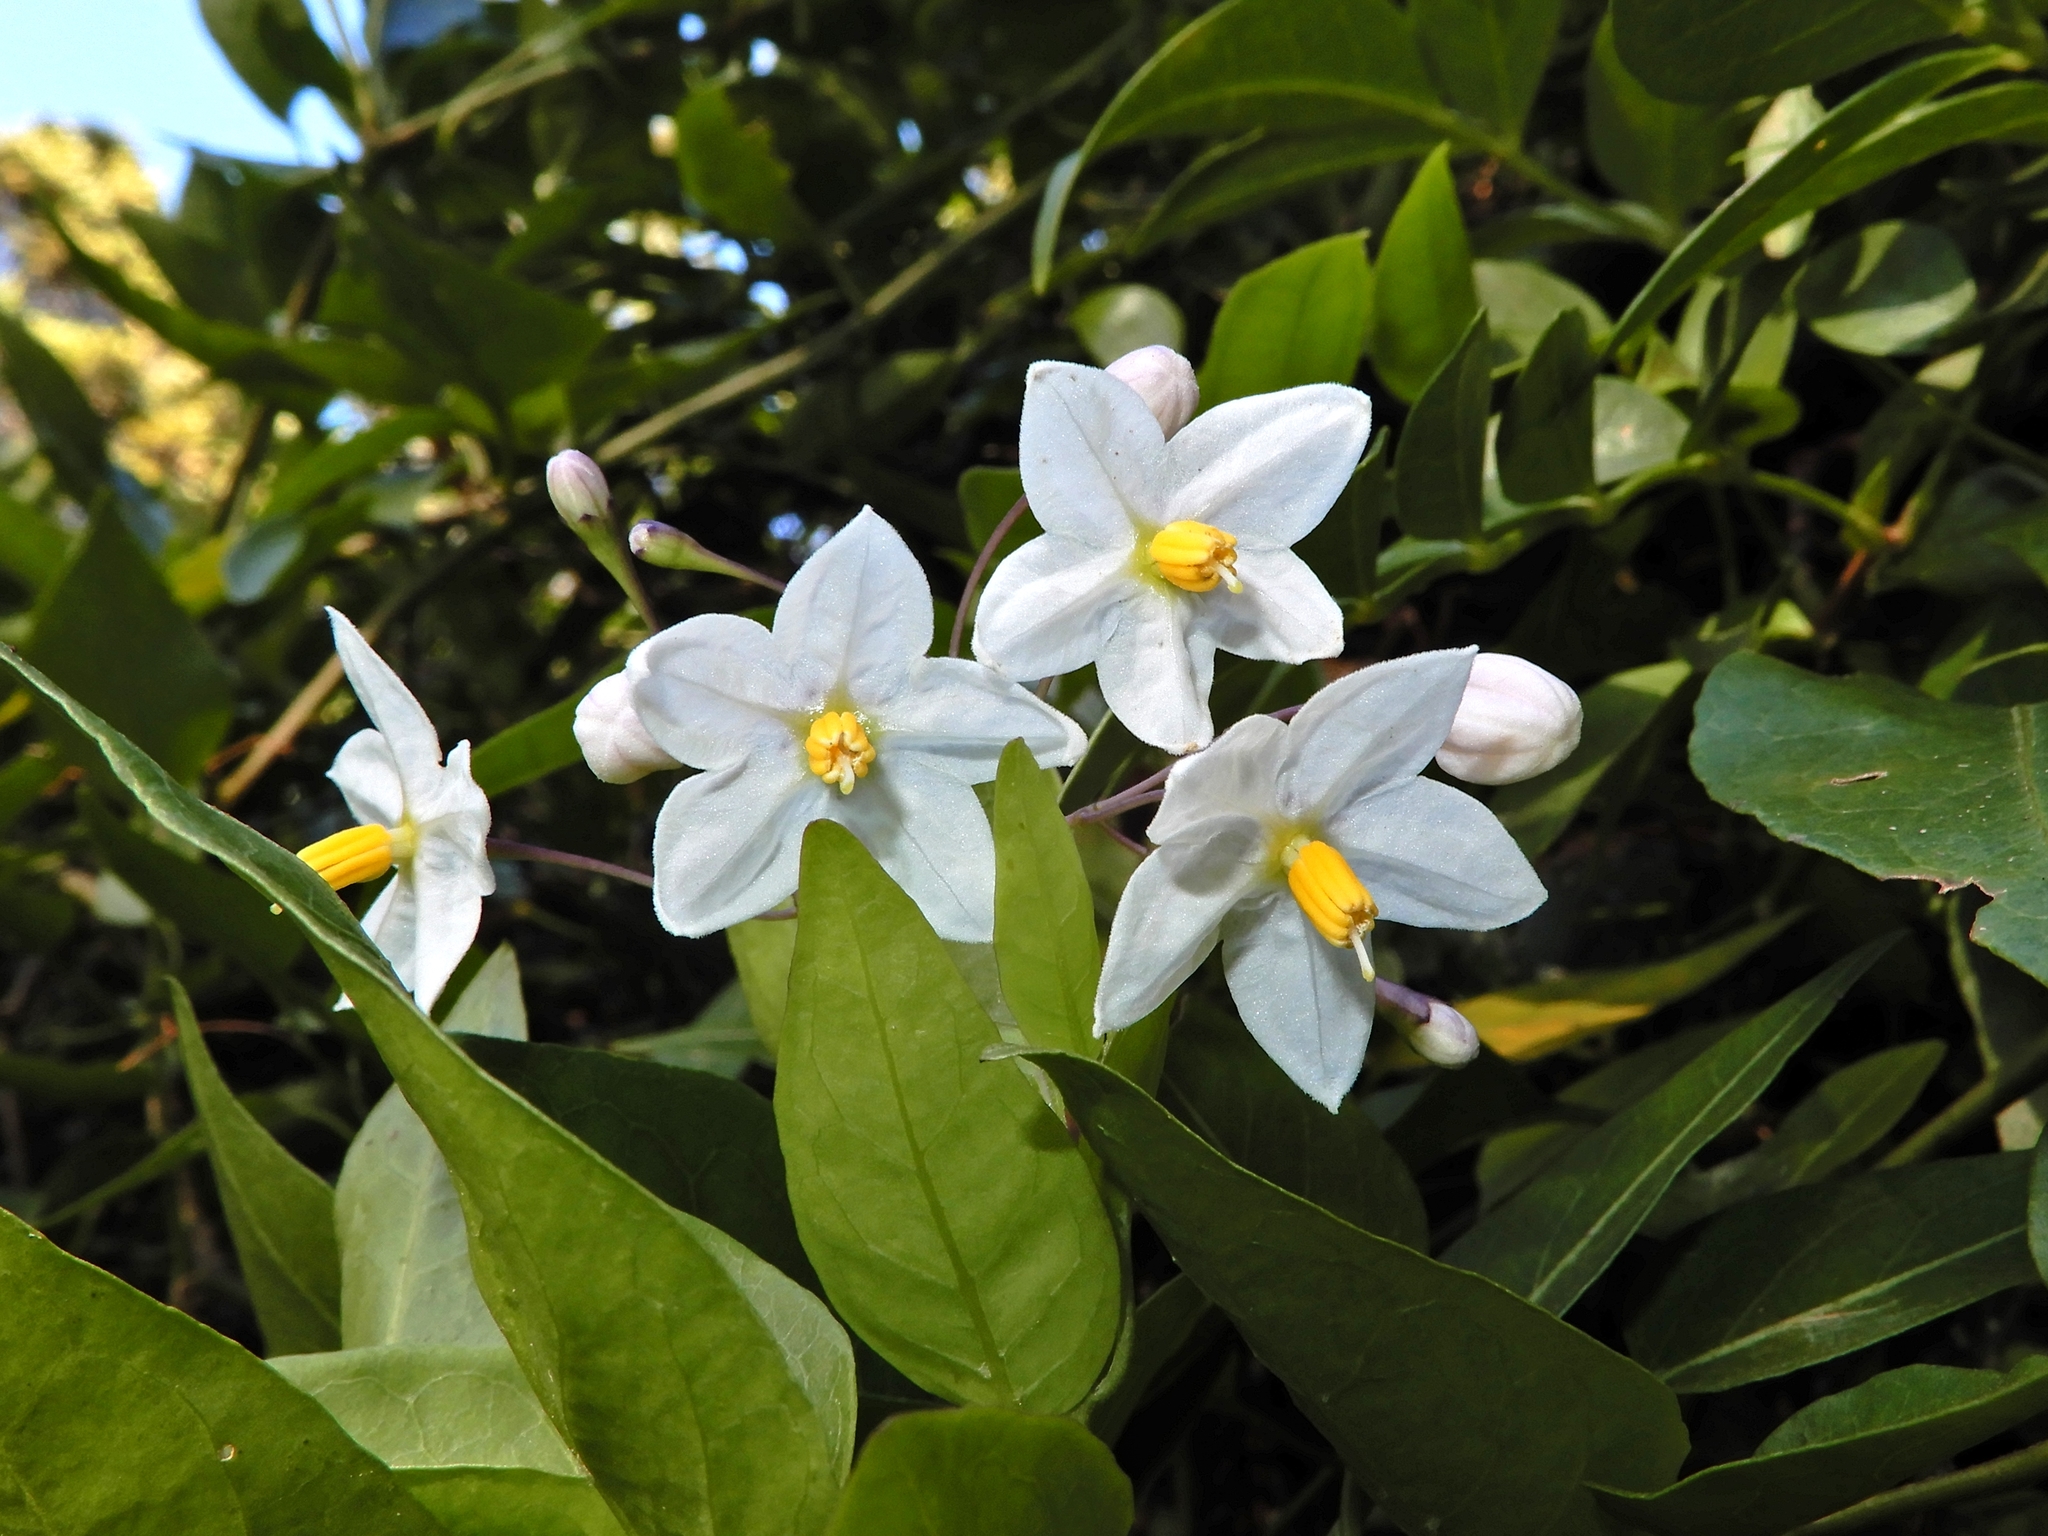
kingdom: Plantae
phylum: Tracheophyta
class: Magnoliopsida
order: Solanales
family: Solanaceae
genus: Solanum
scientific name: Solanum laxum
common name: Nightshade
